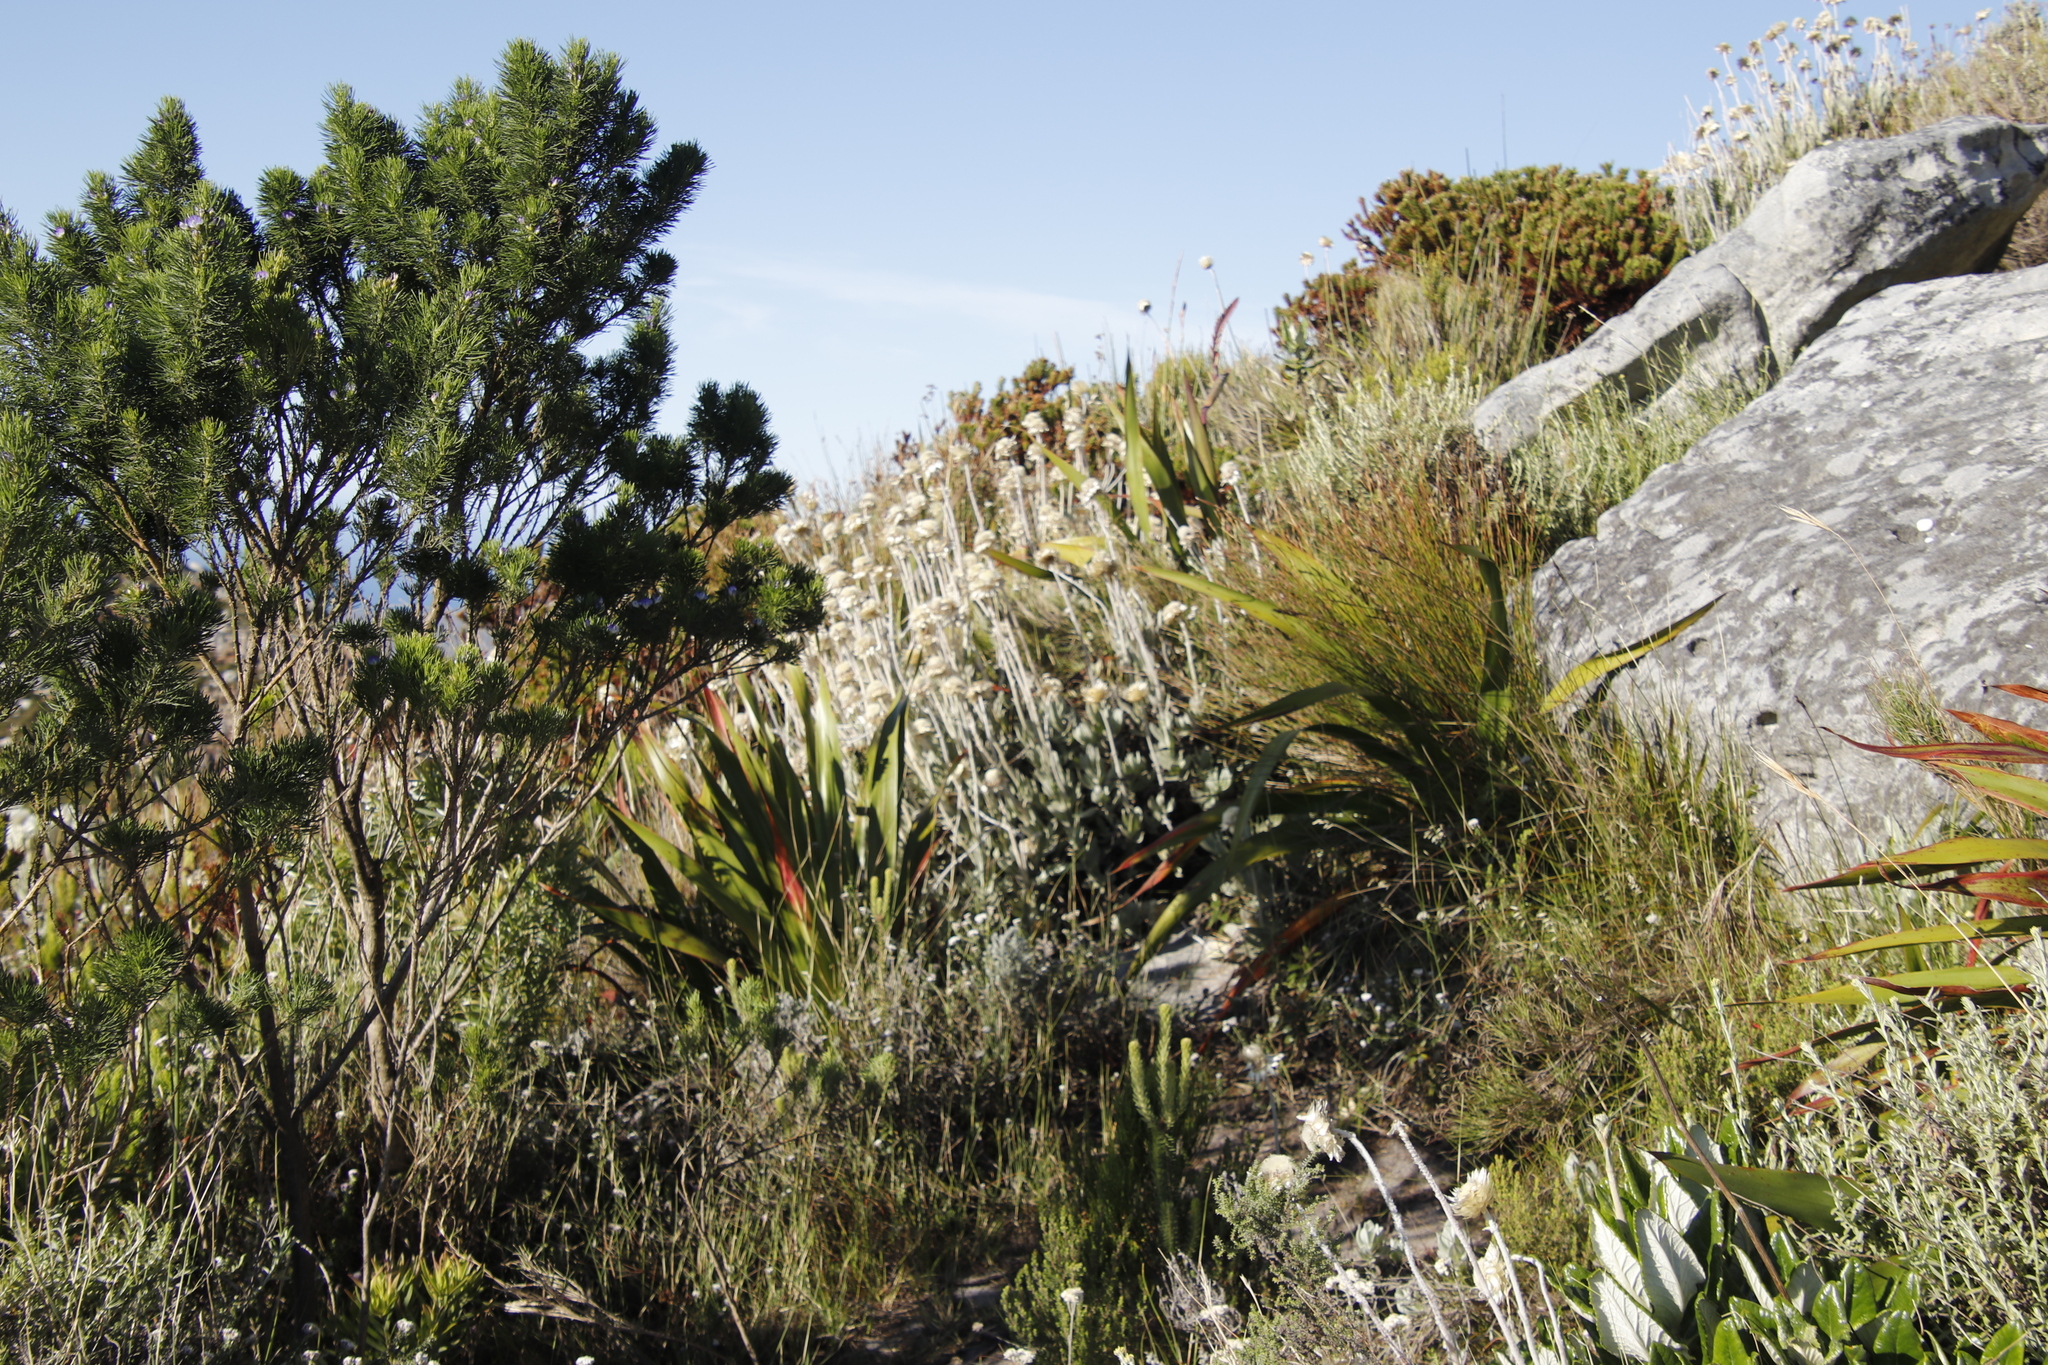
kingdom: Plantae
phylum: Tracheophyta
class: Magnoliopsida
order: Asterales
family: Asteraceae
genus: Syncarpha
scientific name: Syncarpha speciosissima
